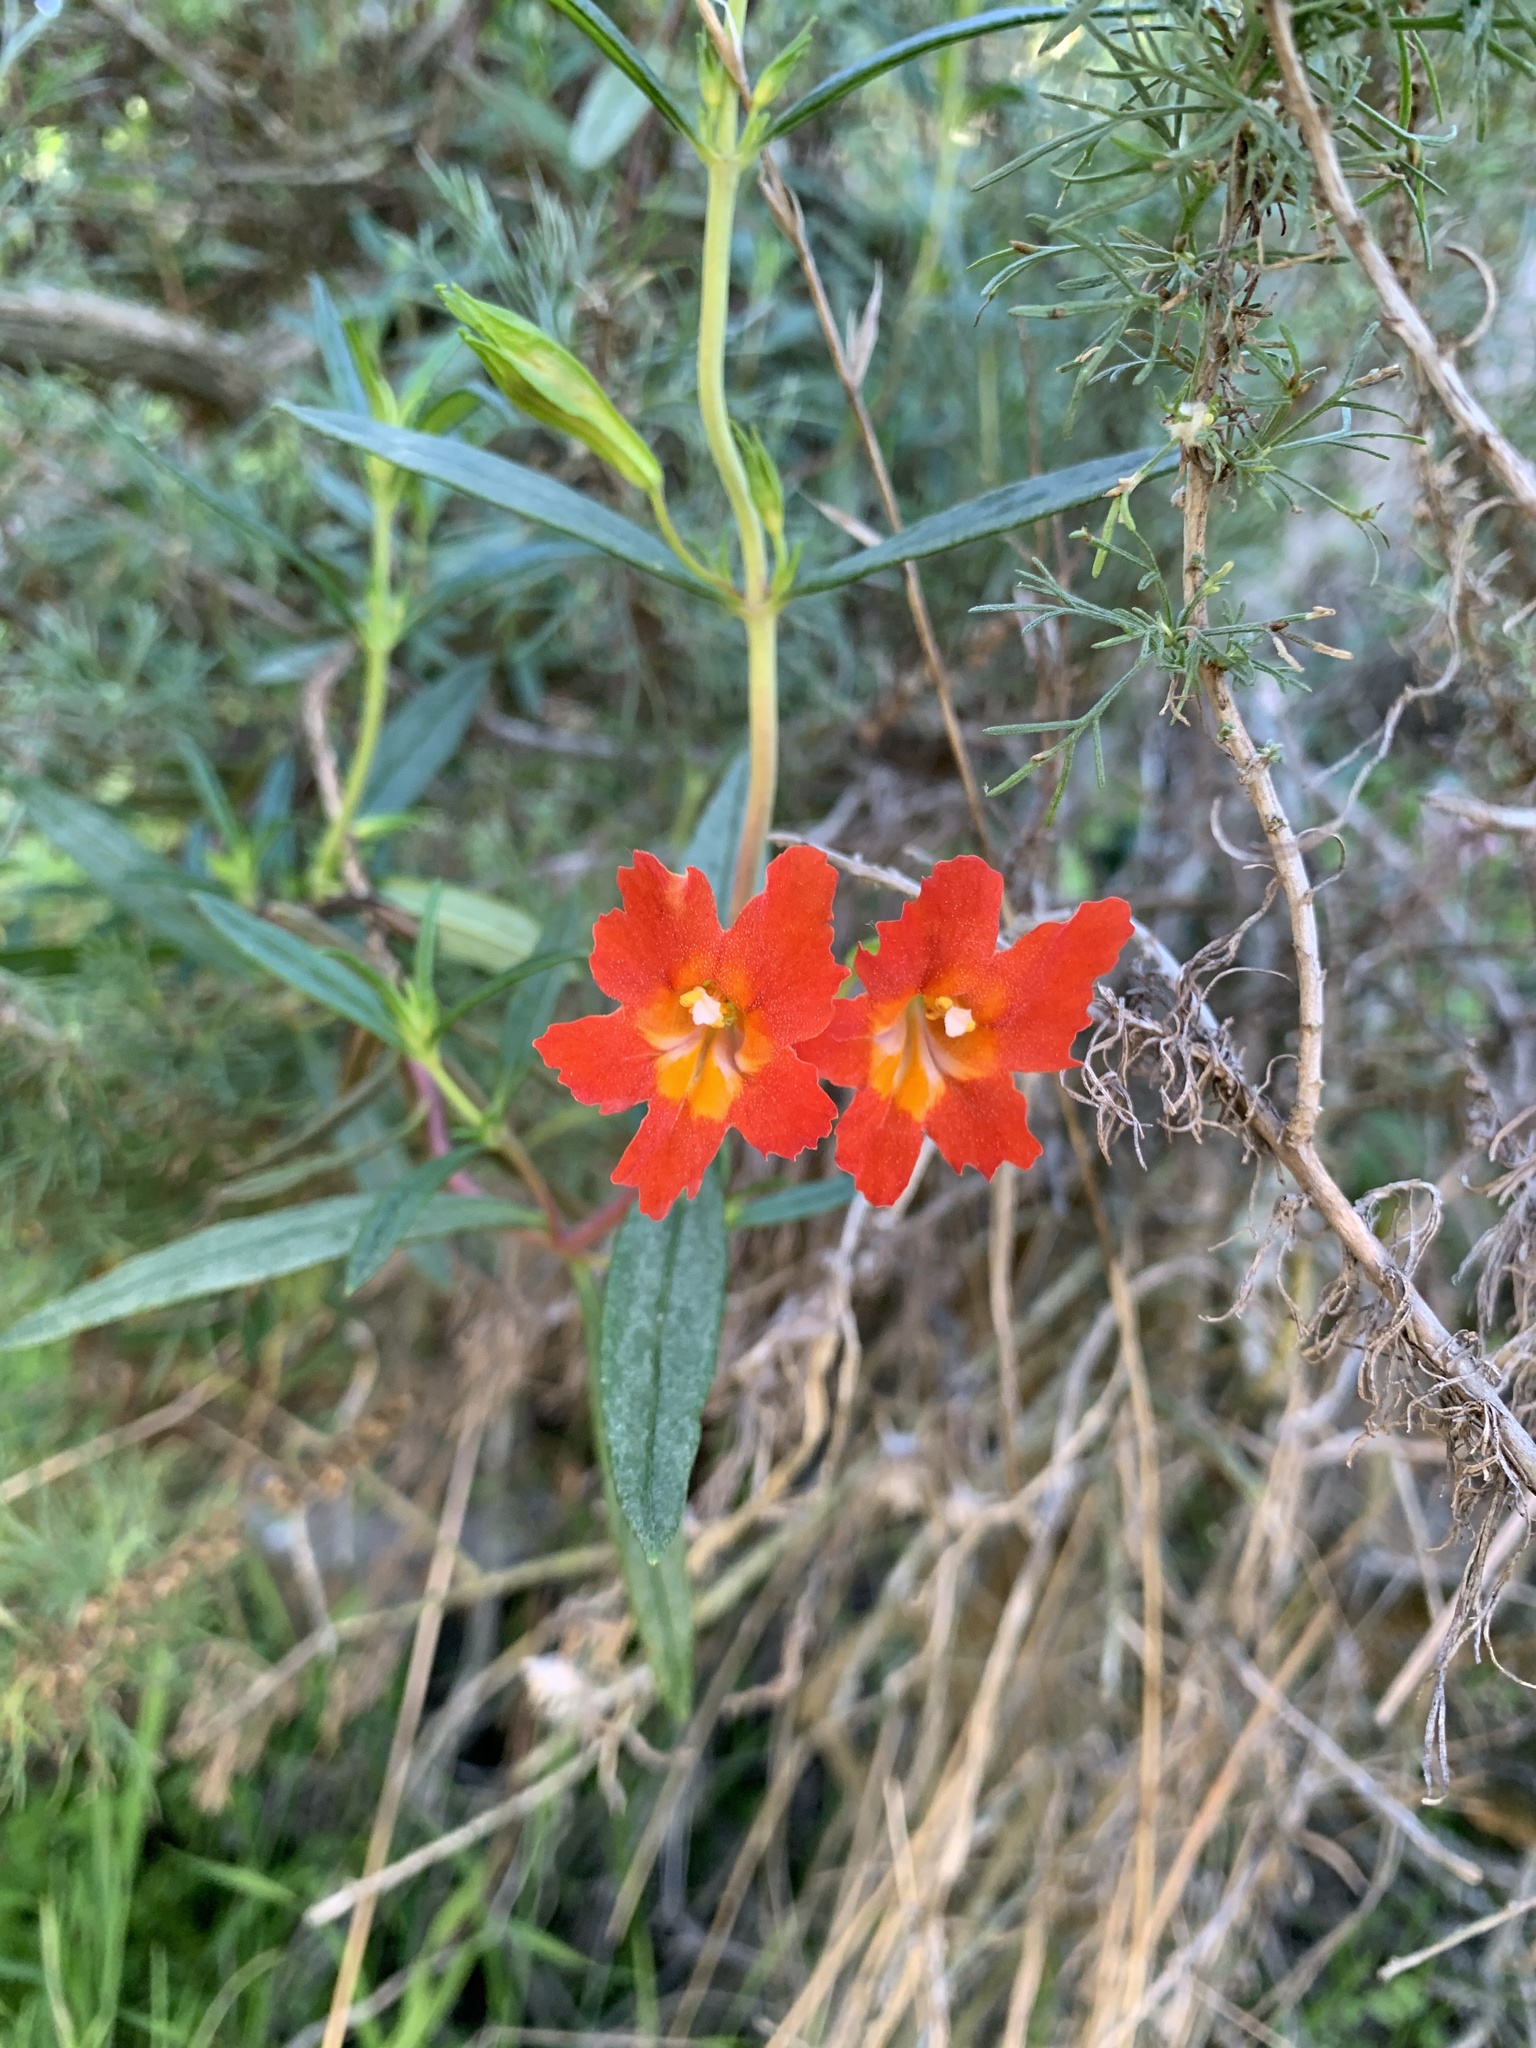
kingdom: Plantae
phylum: Tracheophyta
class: Magnoliopsida
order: Lamiales
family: Phrymaceae
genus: Diplacus
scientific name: Diplacus puniceus
